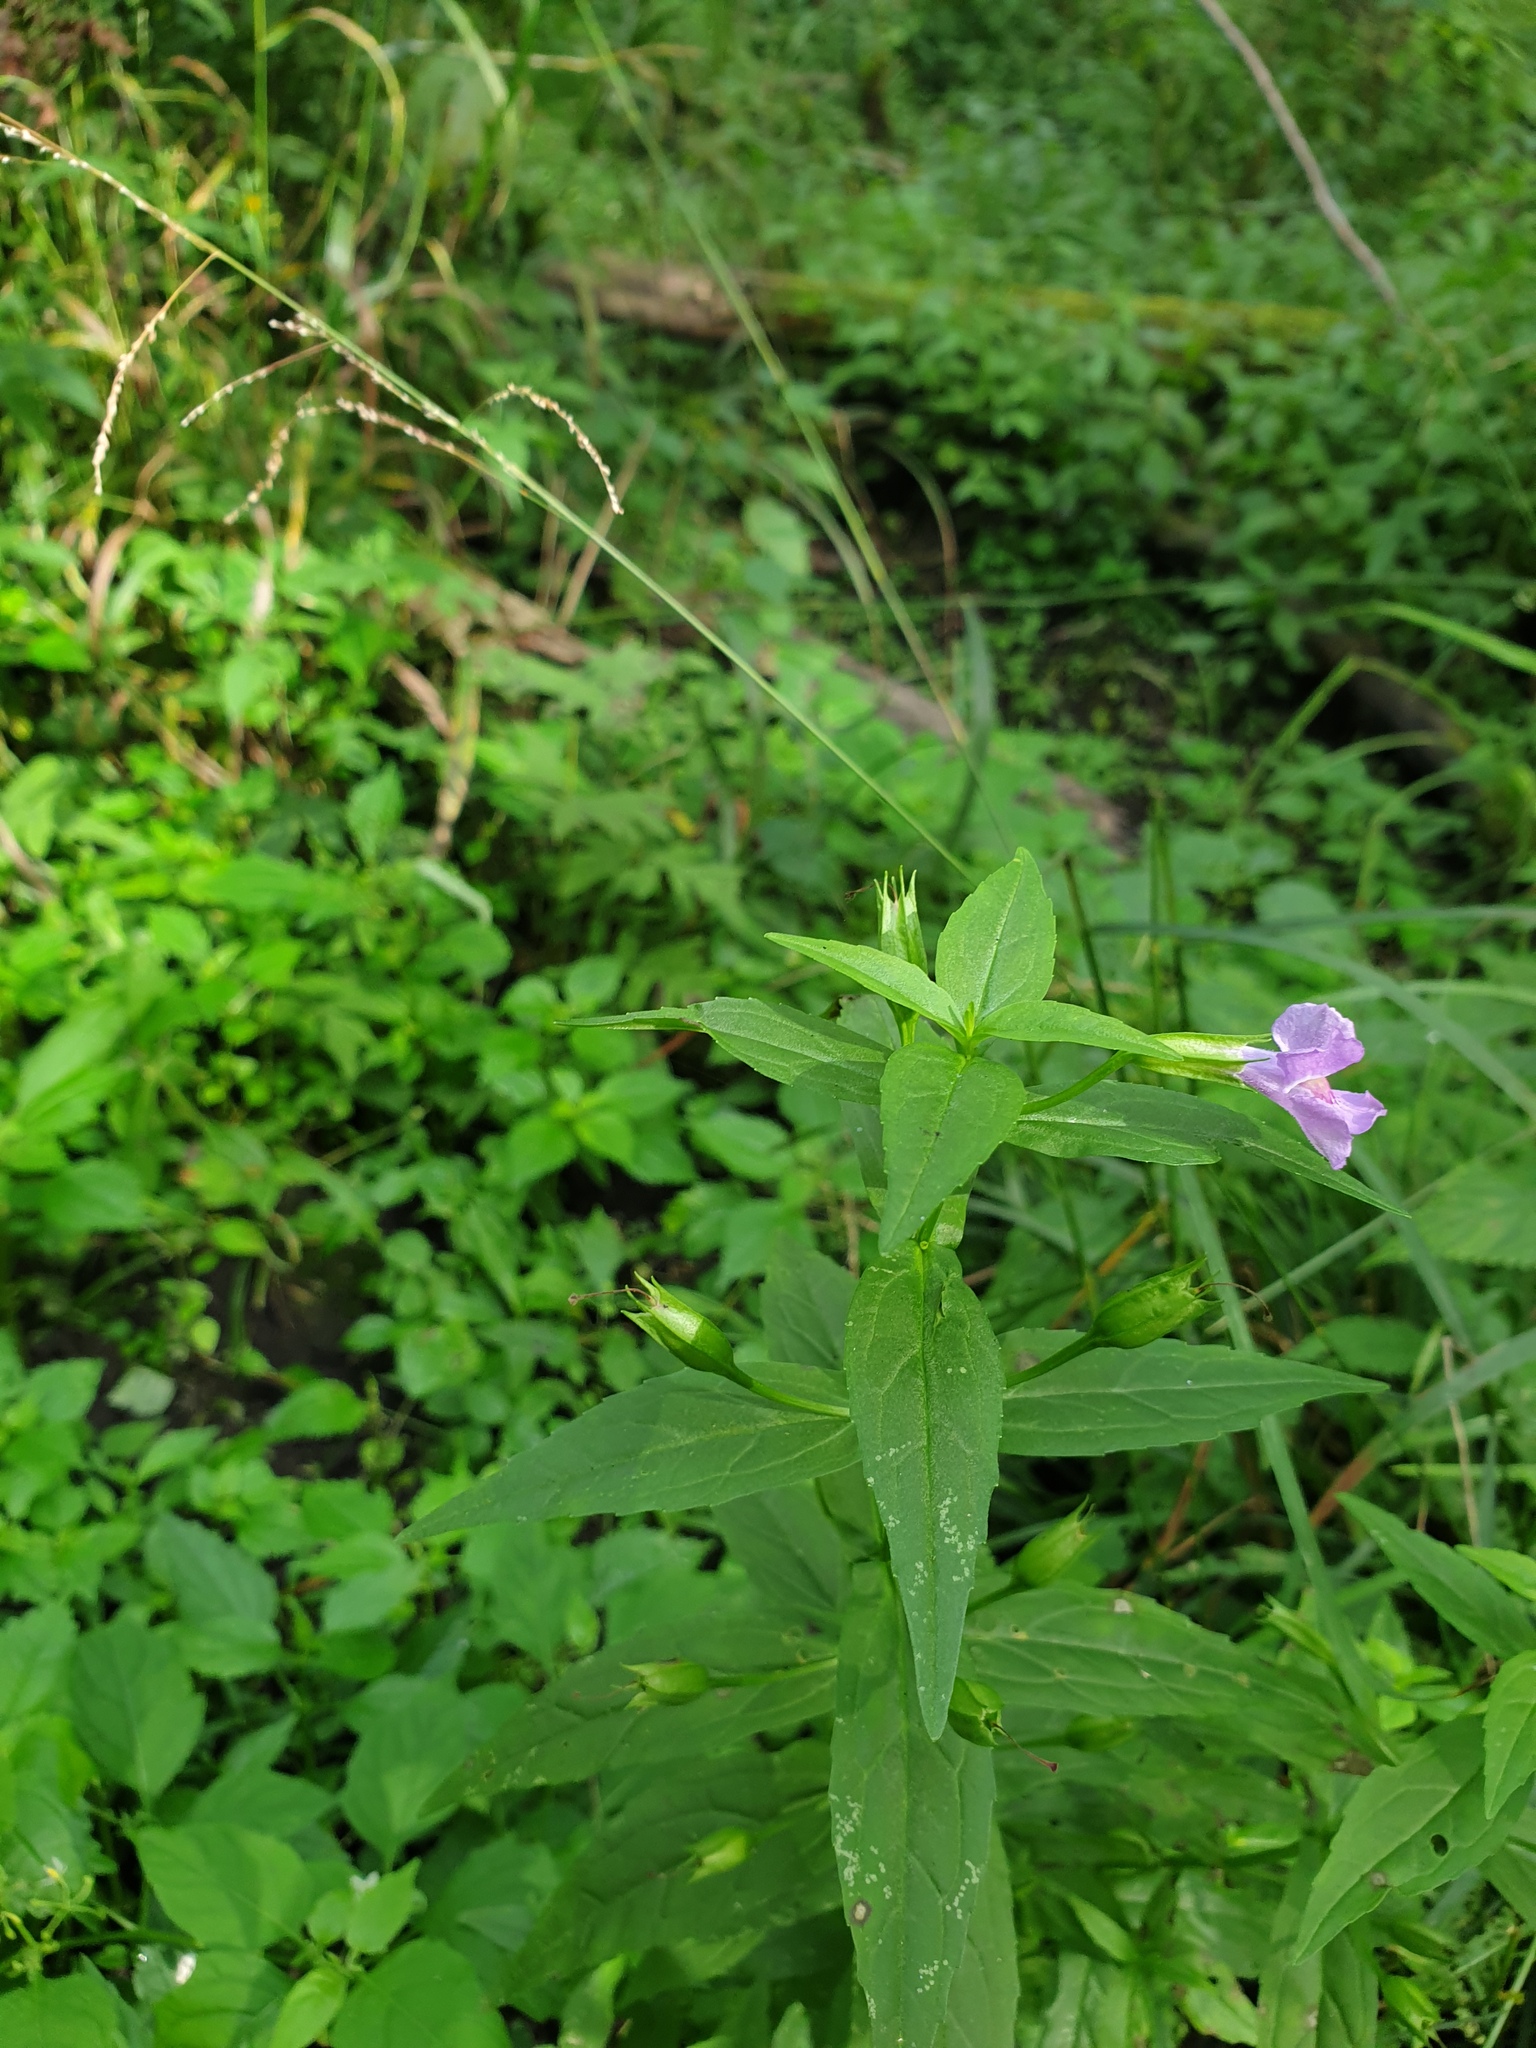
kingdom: Plantae
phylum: Tracheophyta
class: Magnoliopsida
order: Lamiales
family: Phrymaceae
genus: Mimulus
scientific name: Mimulus ringens
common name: Allegheny monkeyflower
